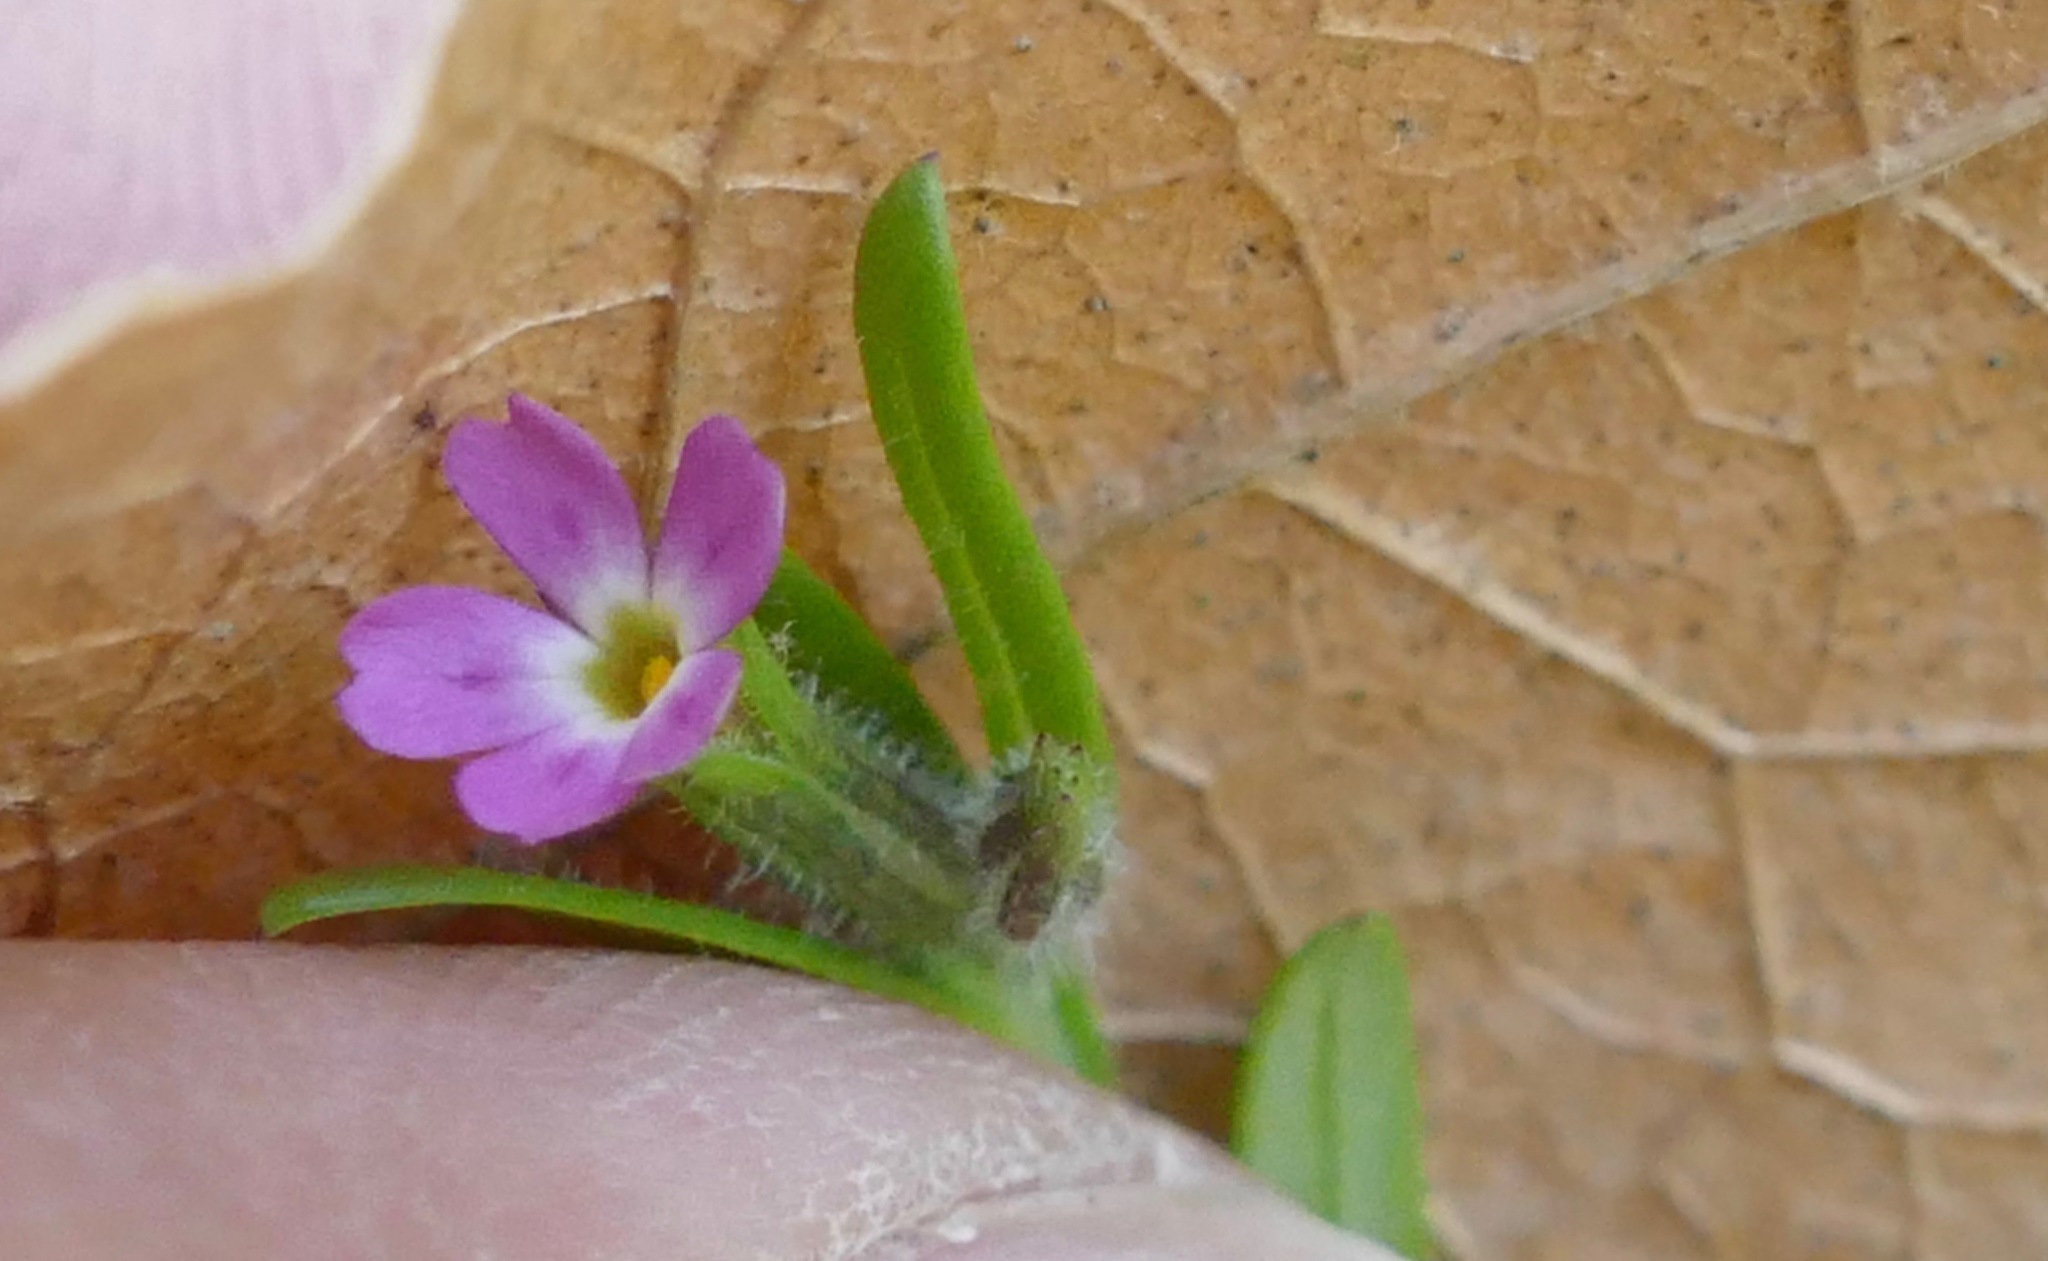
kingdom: Plantae
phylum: Tracheophyta
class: Magnoliopsida
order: Ericales
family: Polemoniaceae
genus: Phlox
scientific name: Phlox gracilis
